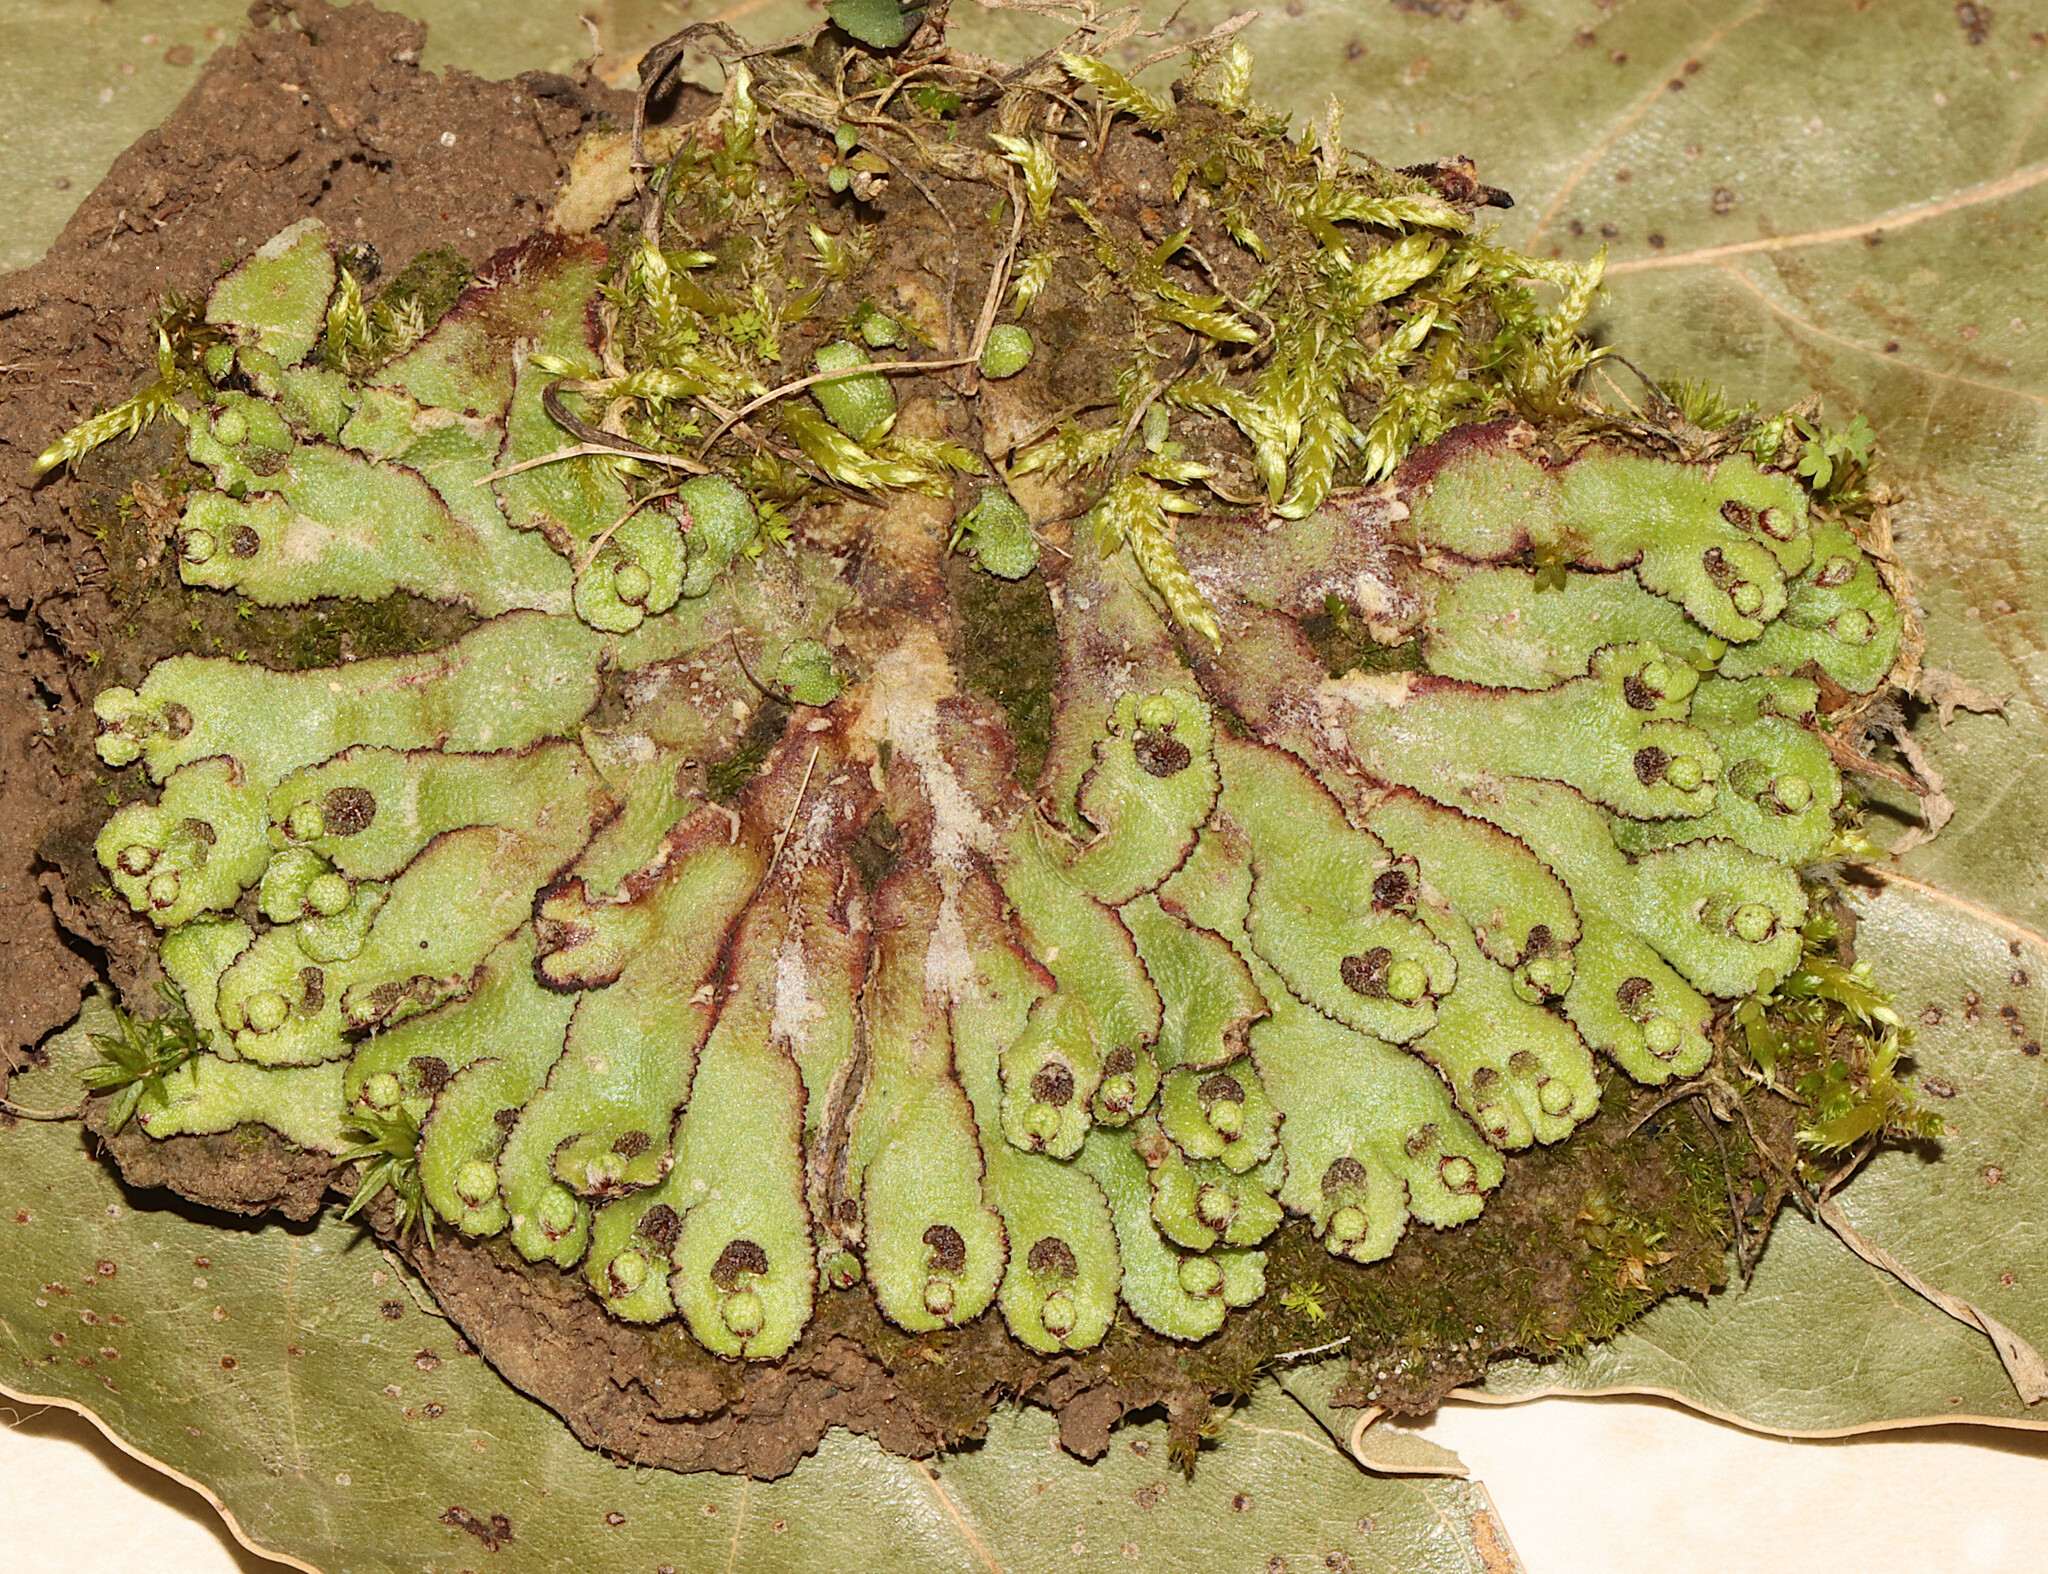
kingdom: Plantae
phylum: Marchantiophyta
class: Marchantiopsida
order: Marchantiales
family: Aytoniaceae
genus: Reboulia
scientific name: Reboulia hemisphaerica
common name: Purple-margined liverwort
